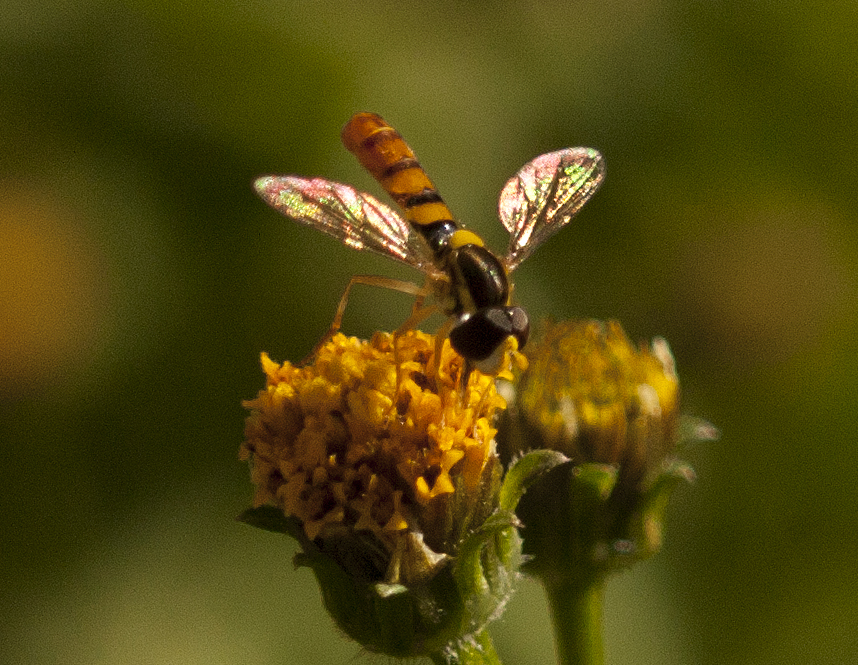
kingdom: Animalia
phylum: Arthropoda
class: Insecta
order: Diptera
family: Syrphidae
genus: Sphaerophoria
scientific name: Sphaerophoria macrogaster
